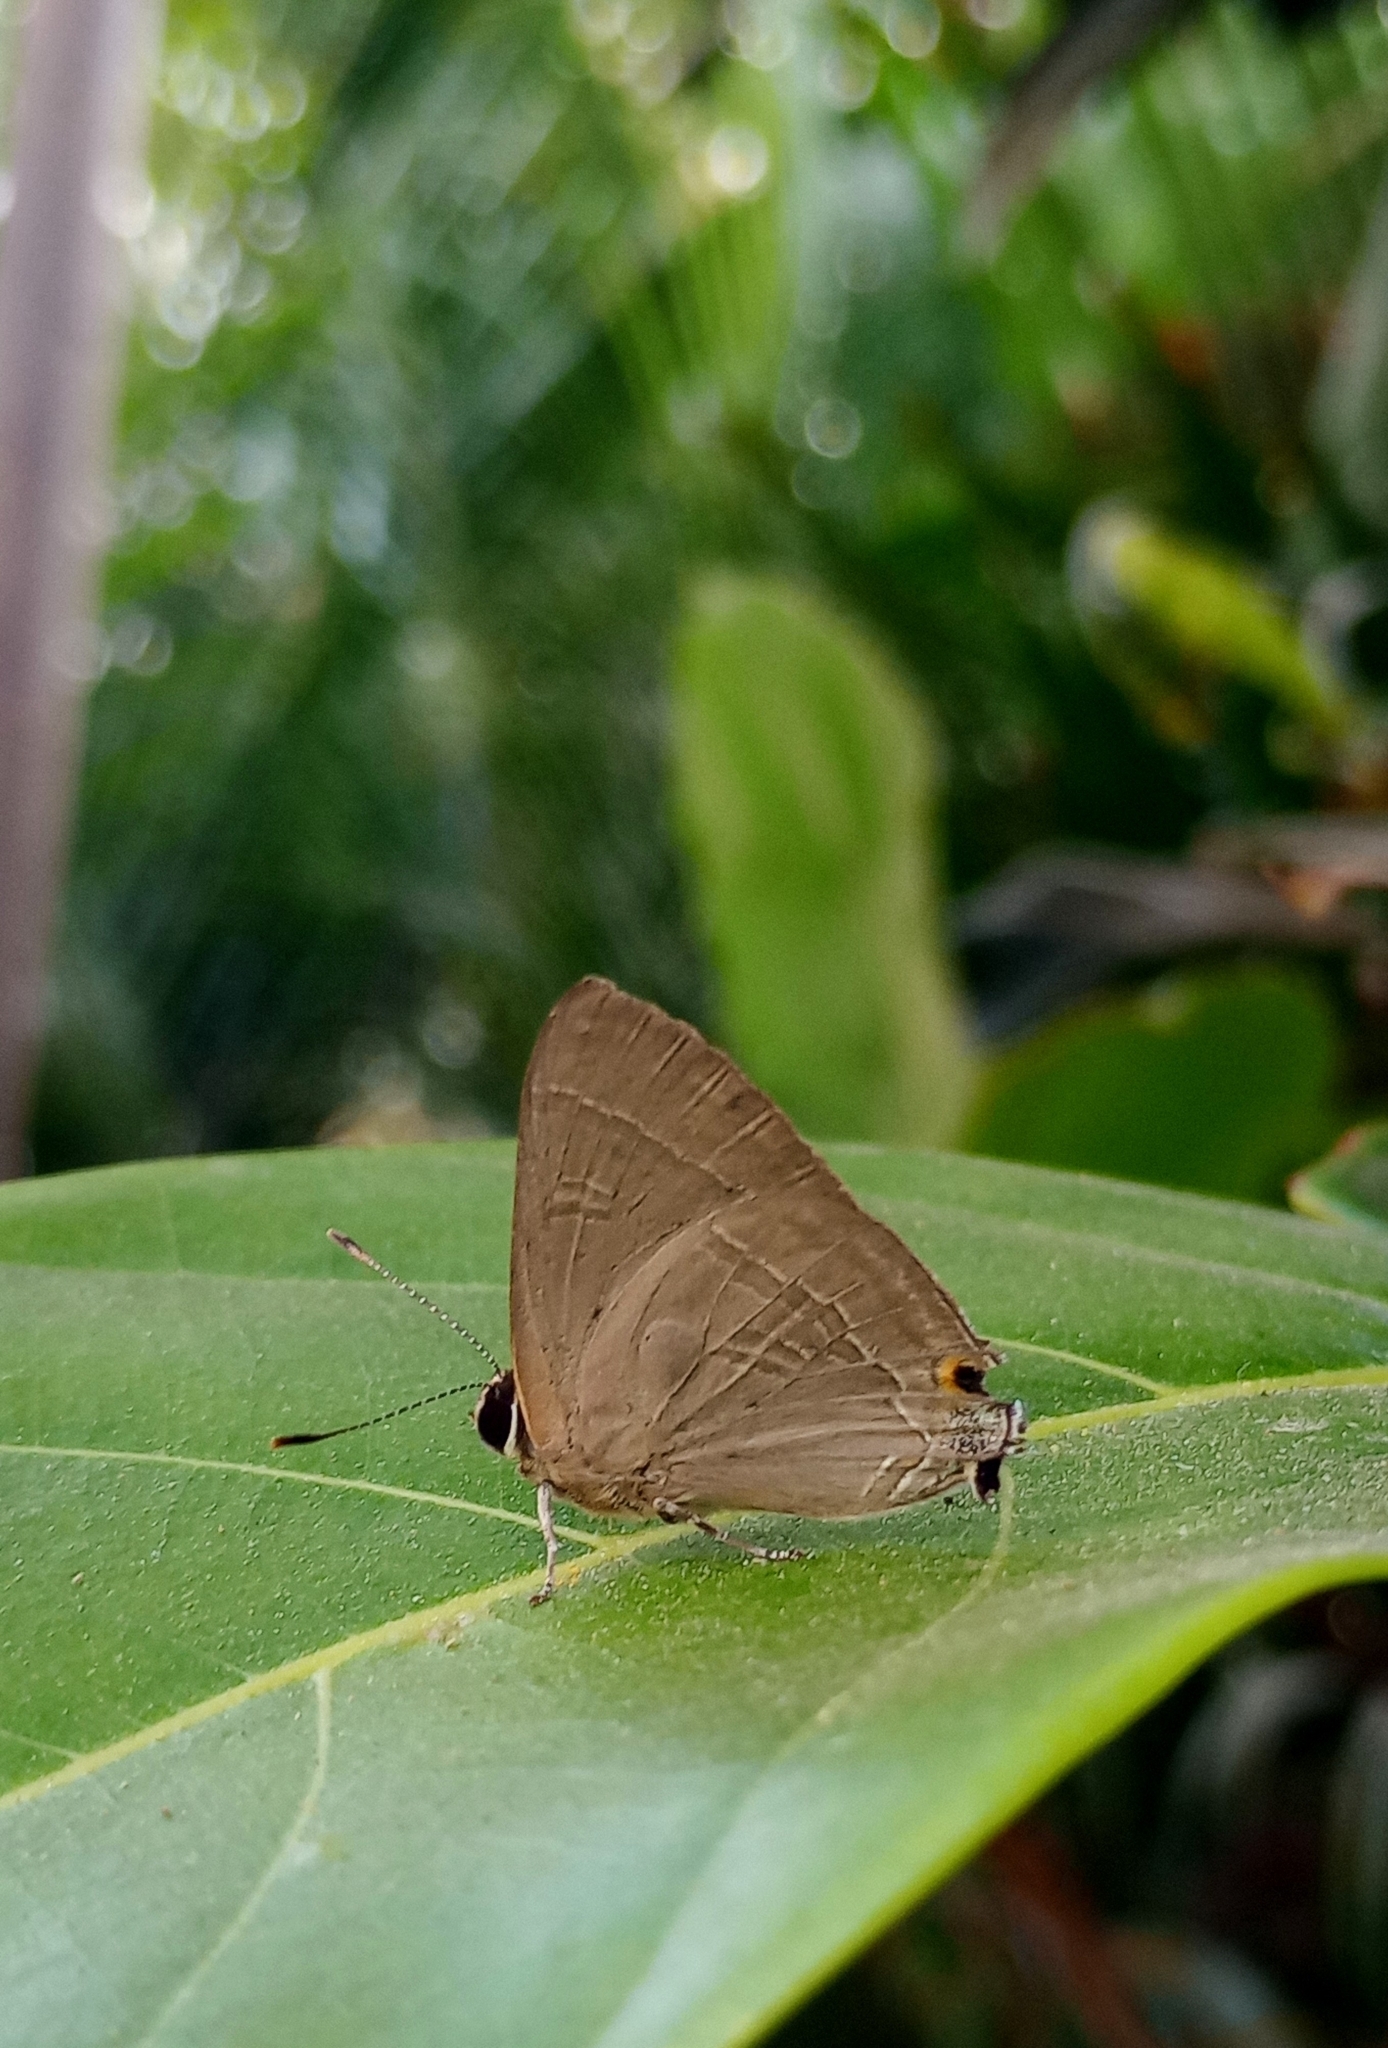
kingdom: Animalia
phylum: Arthropoda
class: Insecta
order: Lepidoptera
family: Lycaenidae
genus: Rapala
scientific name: Rapala manea
